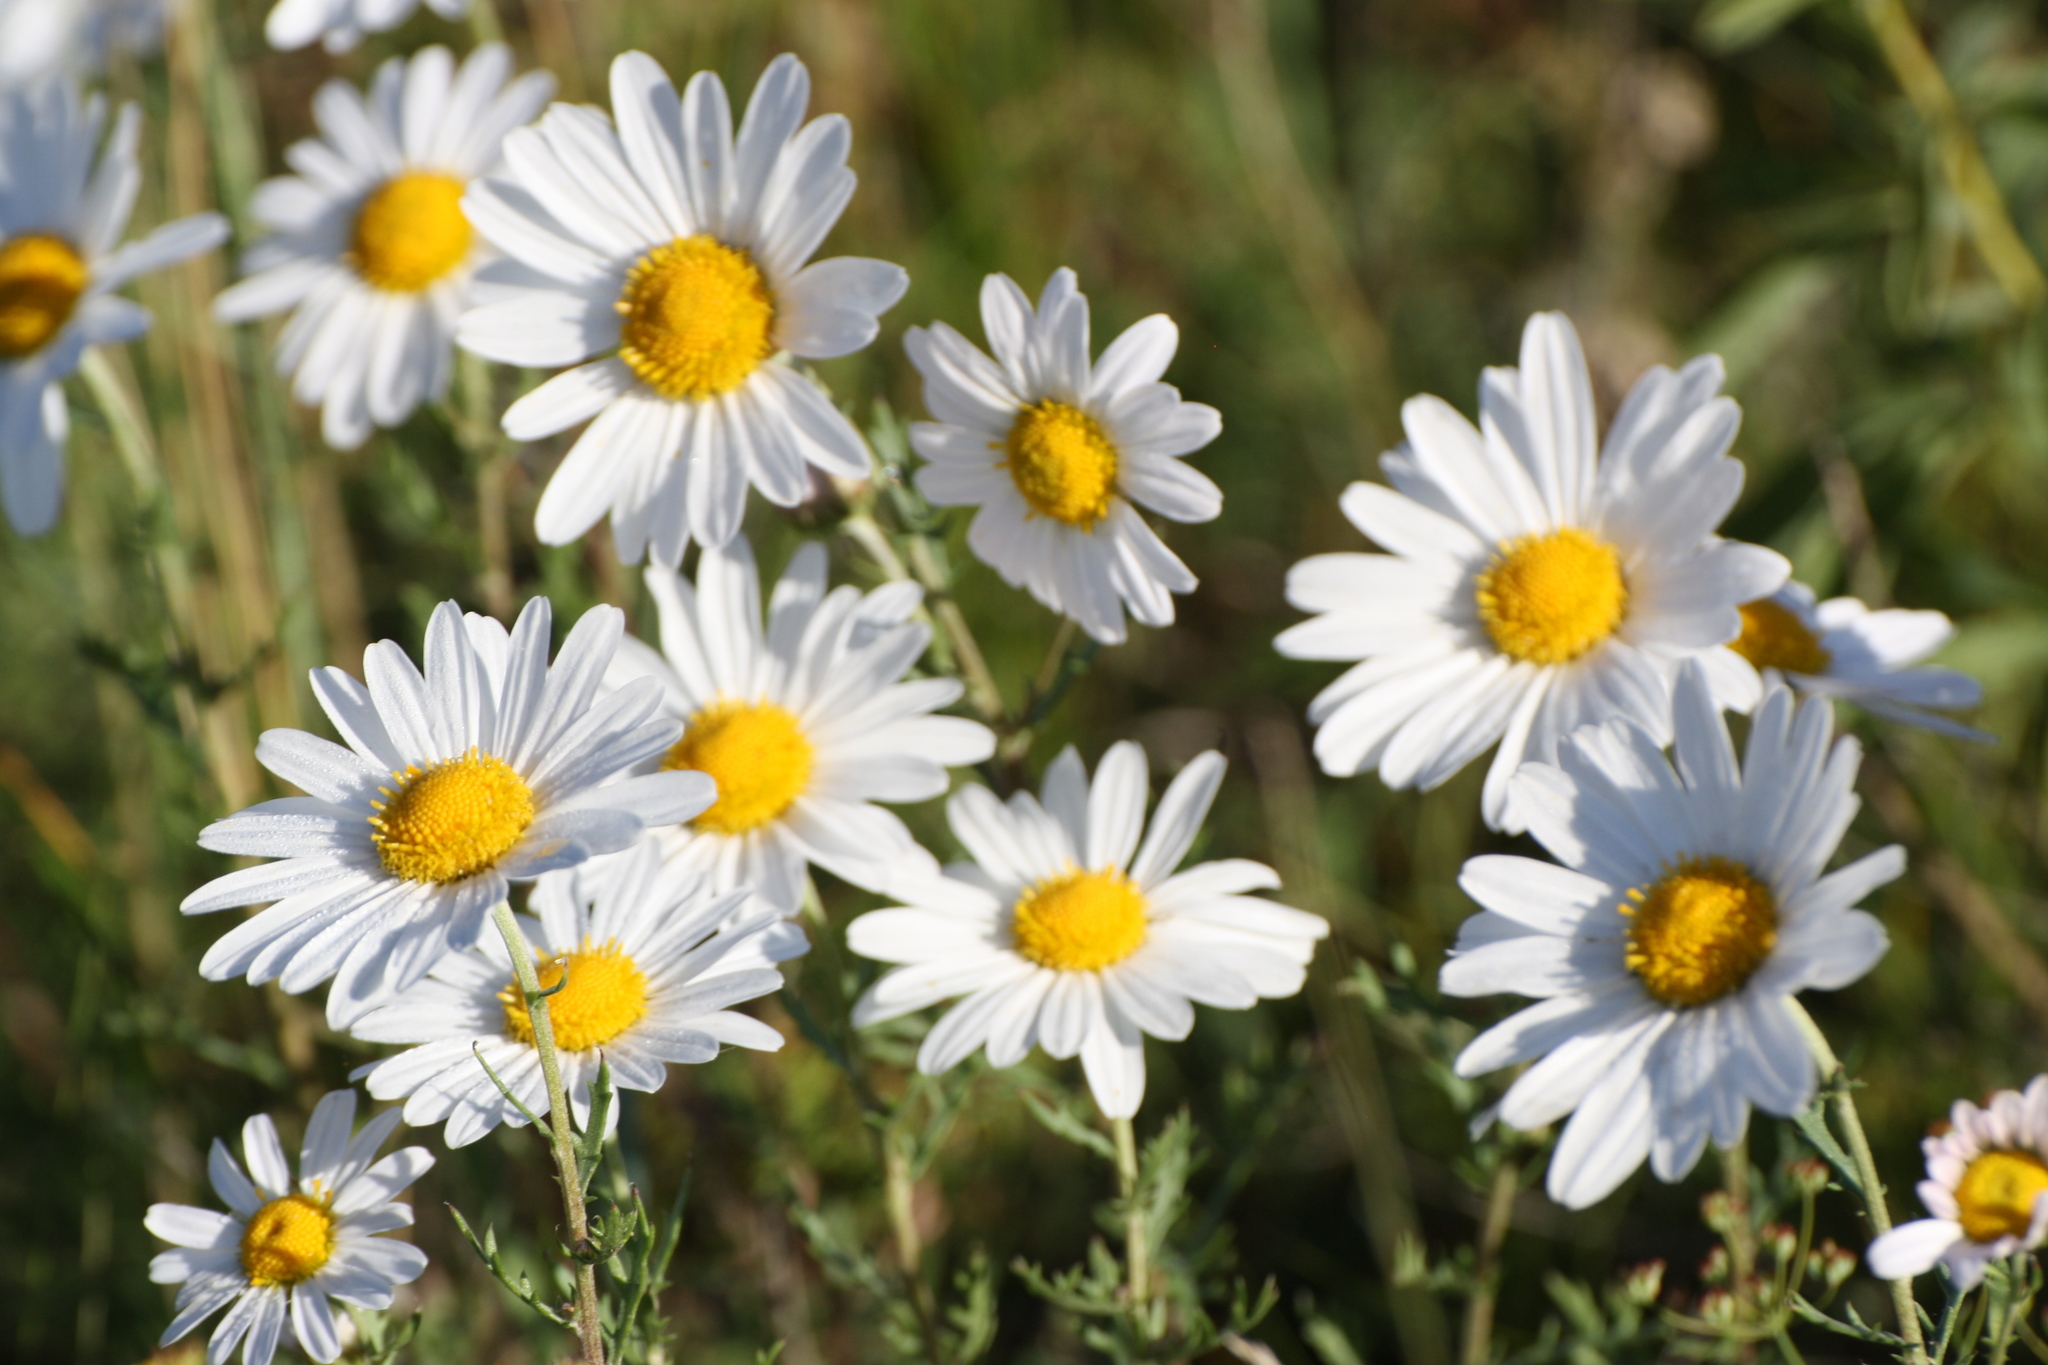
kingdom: Plantae
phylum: Tracheophyta
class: Magnoliopsida
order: Asterales
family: Asteraceae
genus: Chrysanthemum
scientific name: Chrysanthemum zawadzkii
